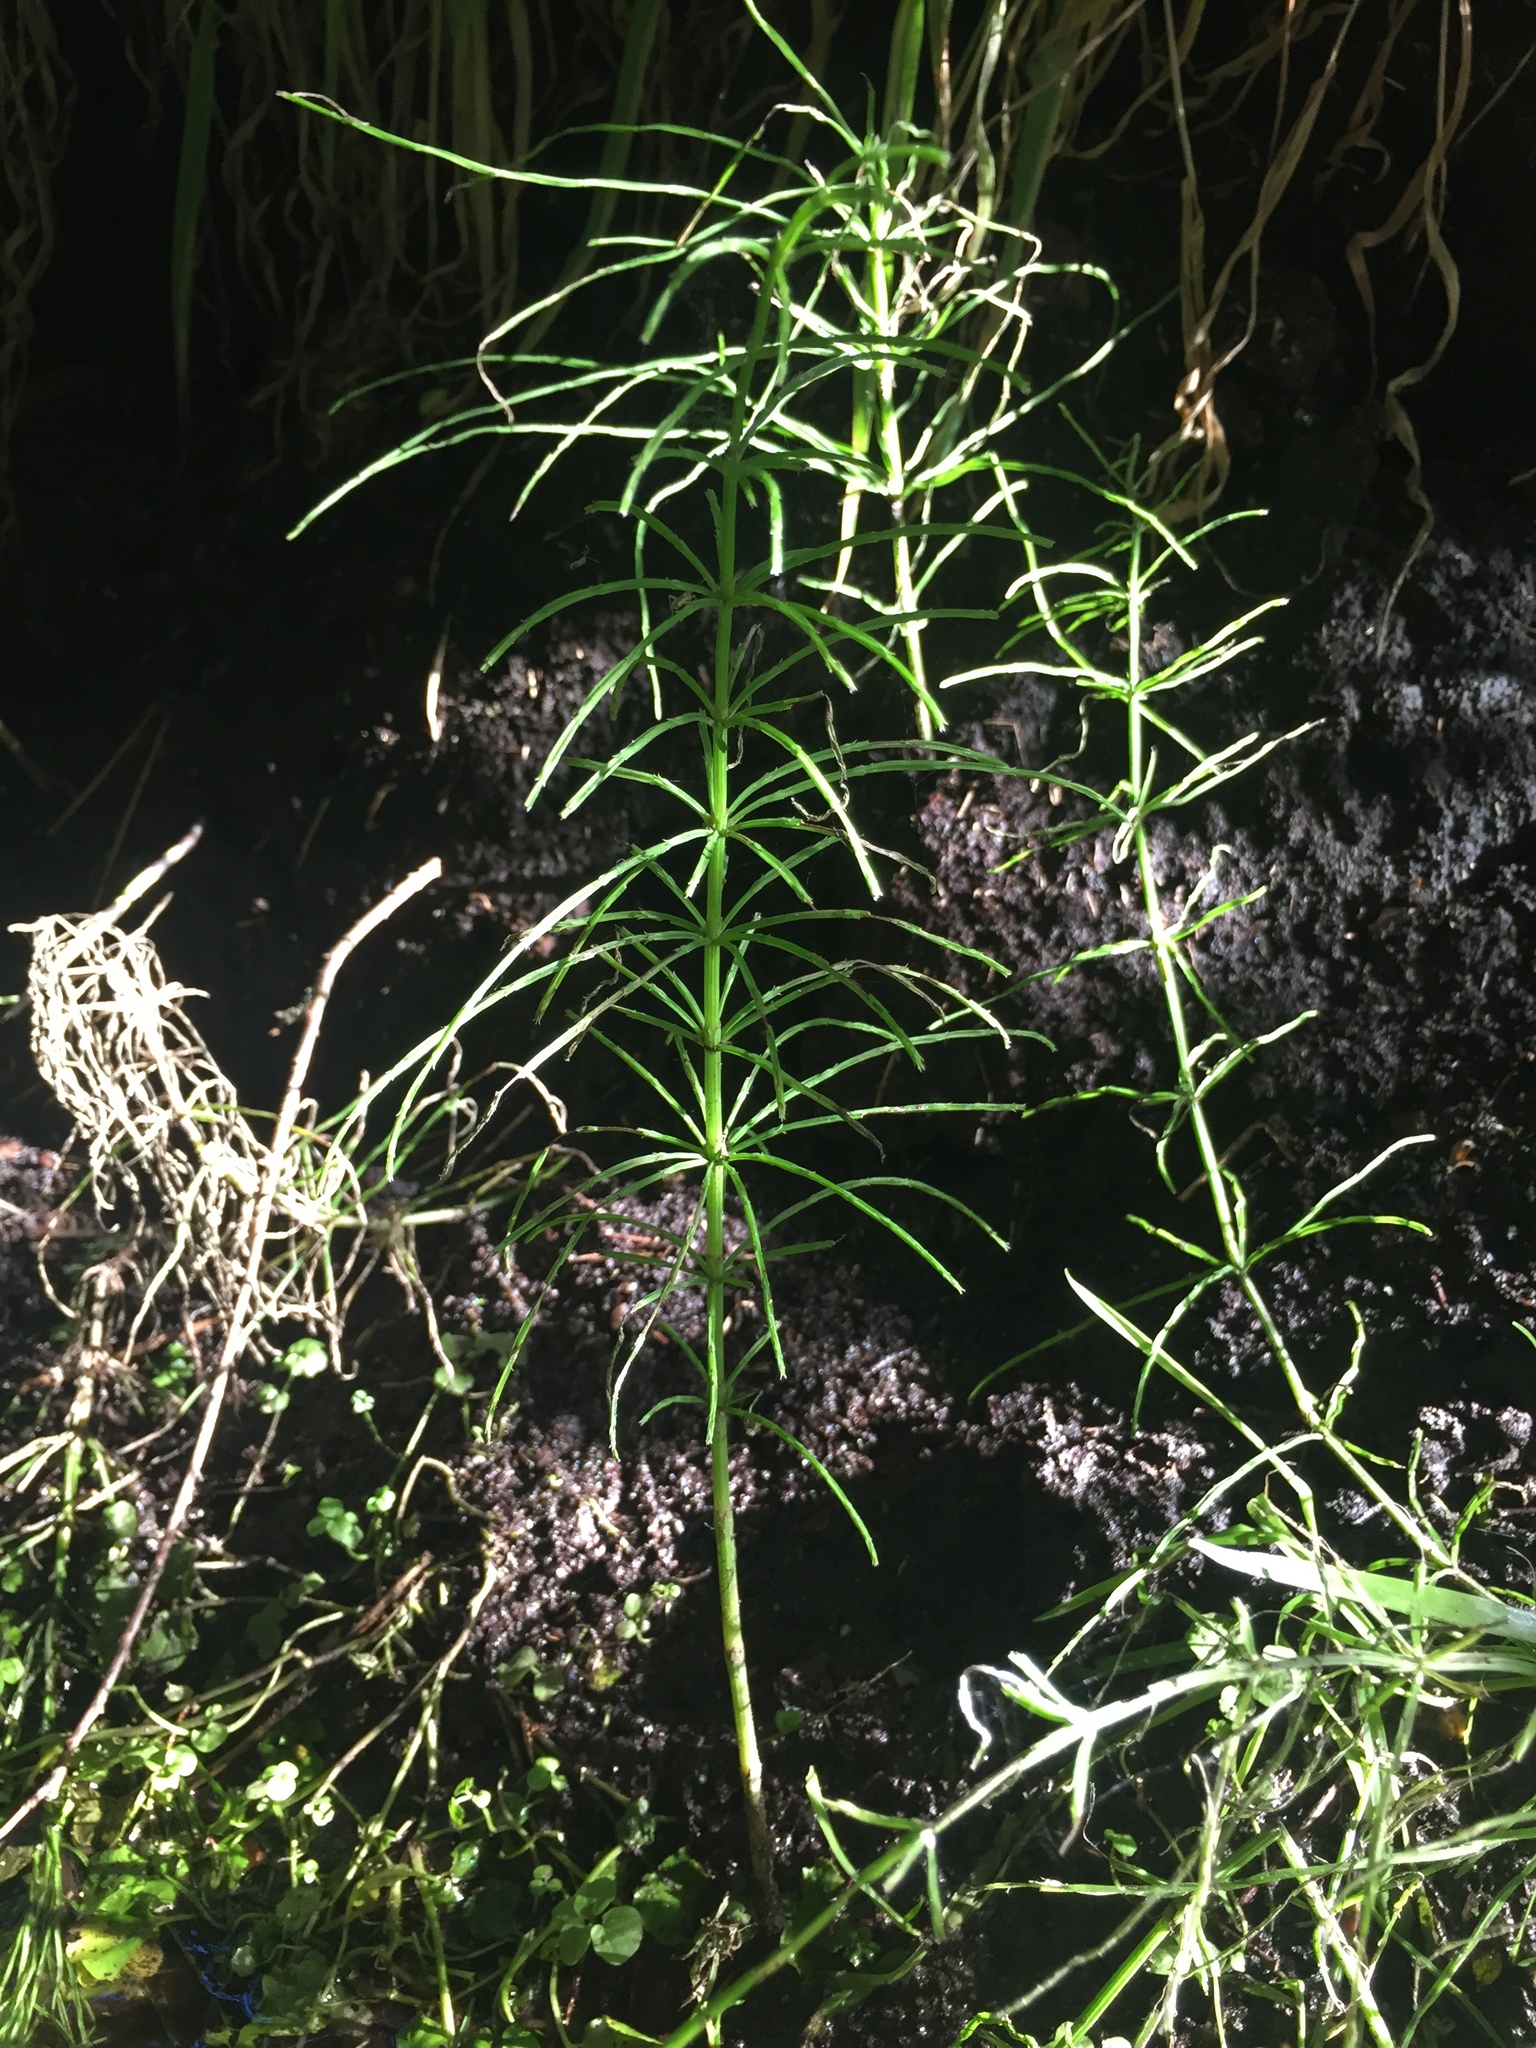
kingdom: Plantae
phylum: Tracheophyta
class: Polypodiopsida
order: Equisetales
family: Equisetaceae
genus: Equisetum
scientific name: Equisetum arvense
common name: Field horsetail
